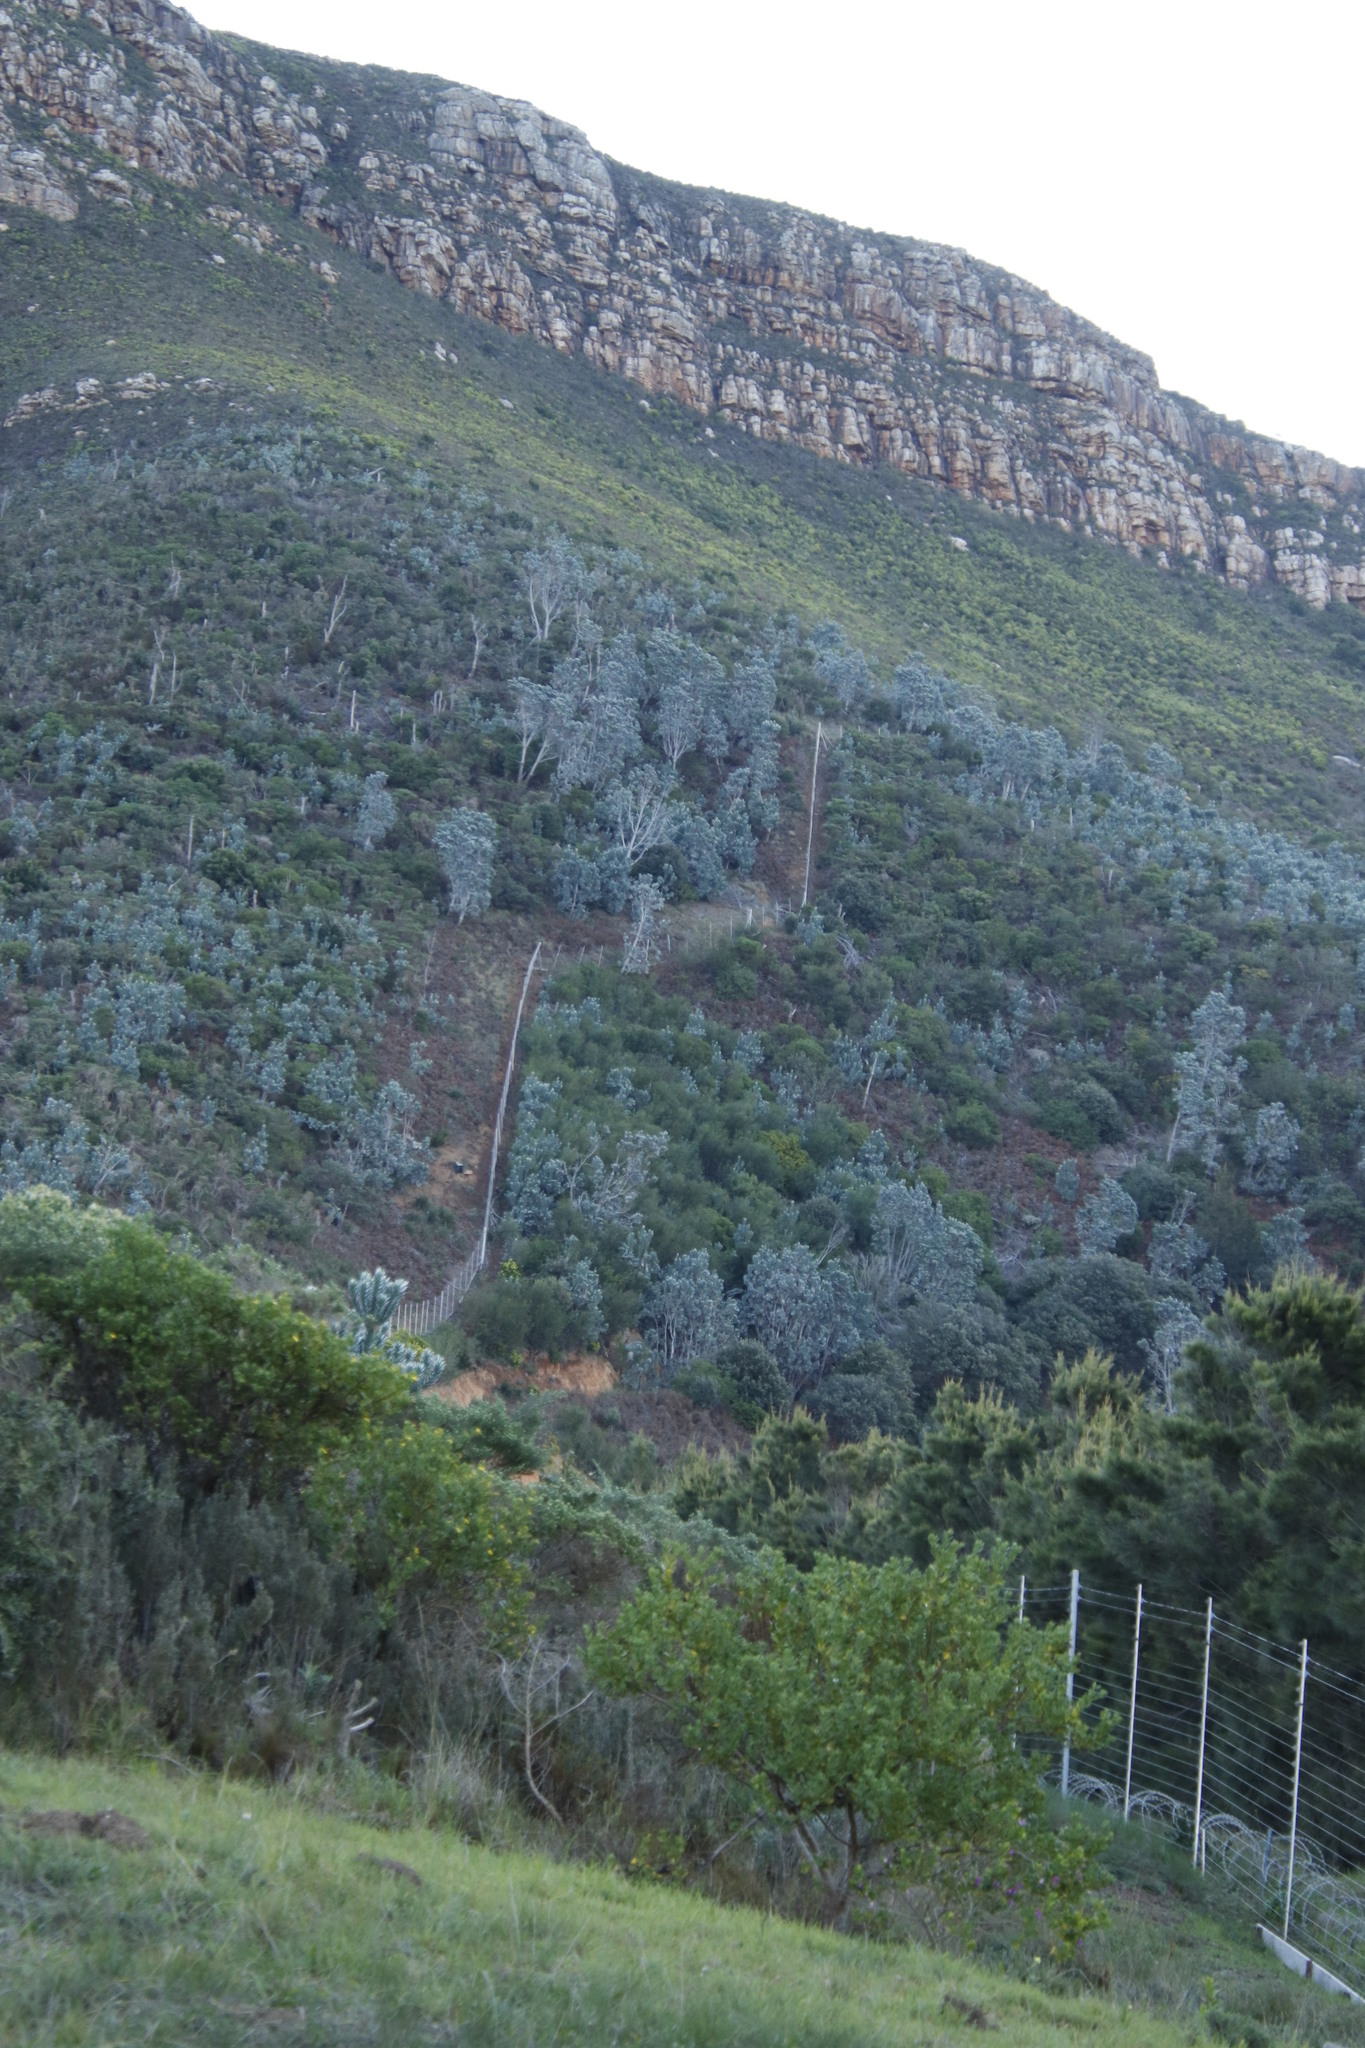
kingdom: Plantae
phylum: Tracheophyta
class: Magnoliopsida
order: Proteales
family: Proteaceae
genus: Leucadendron
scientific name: Leucadendron argenteum
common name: Cape silver tree
